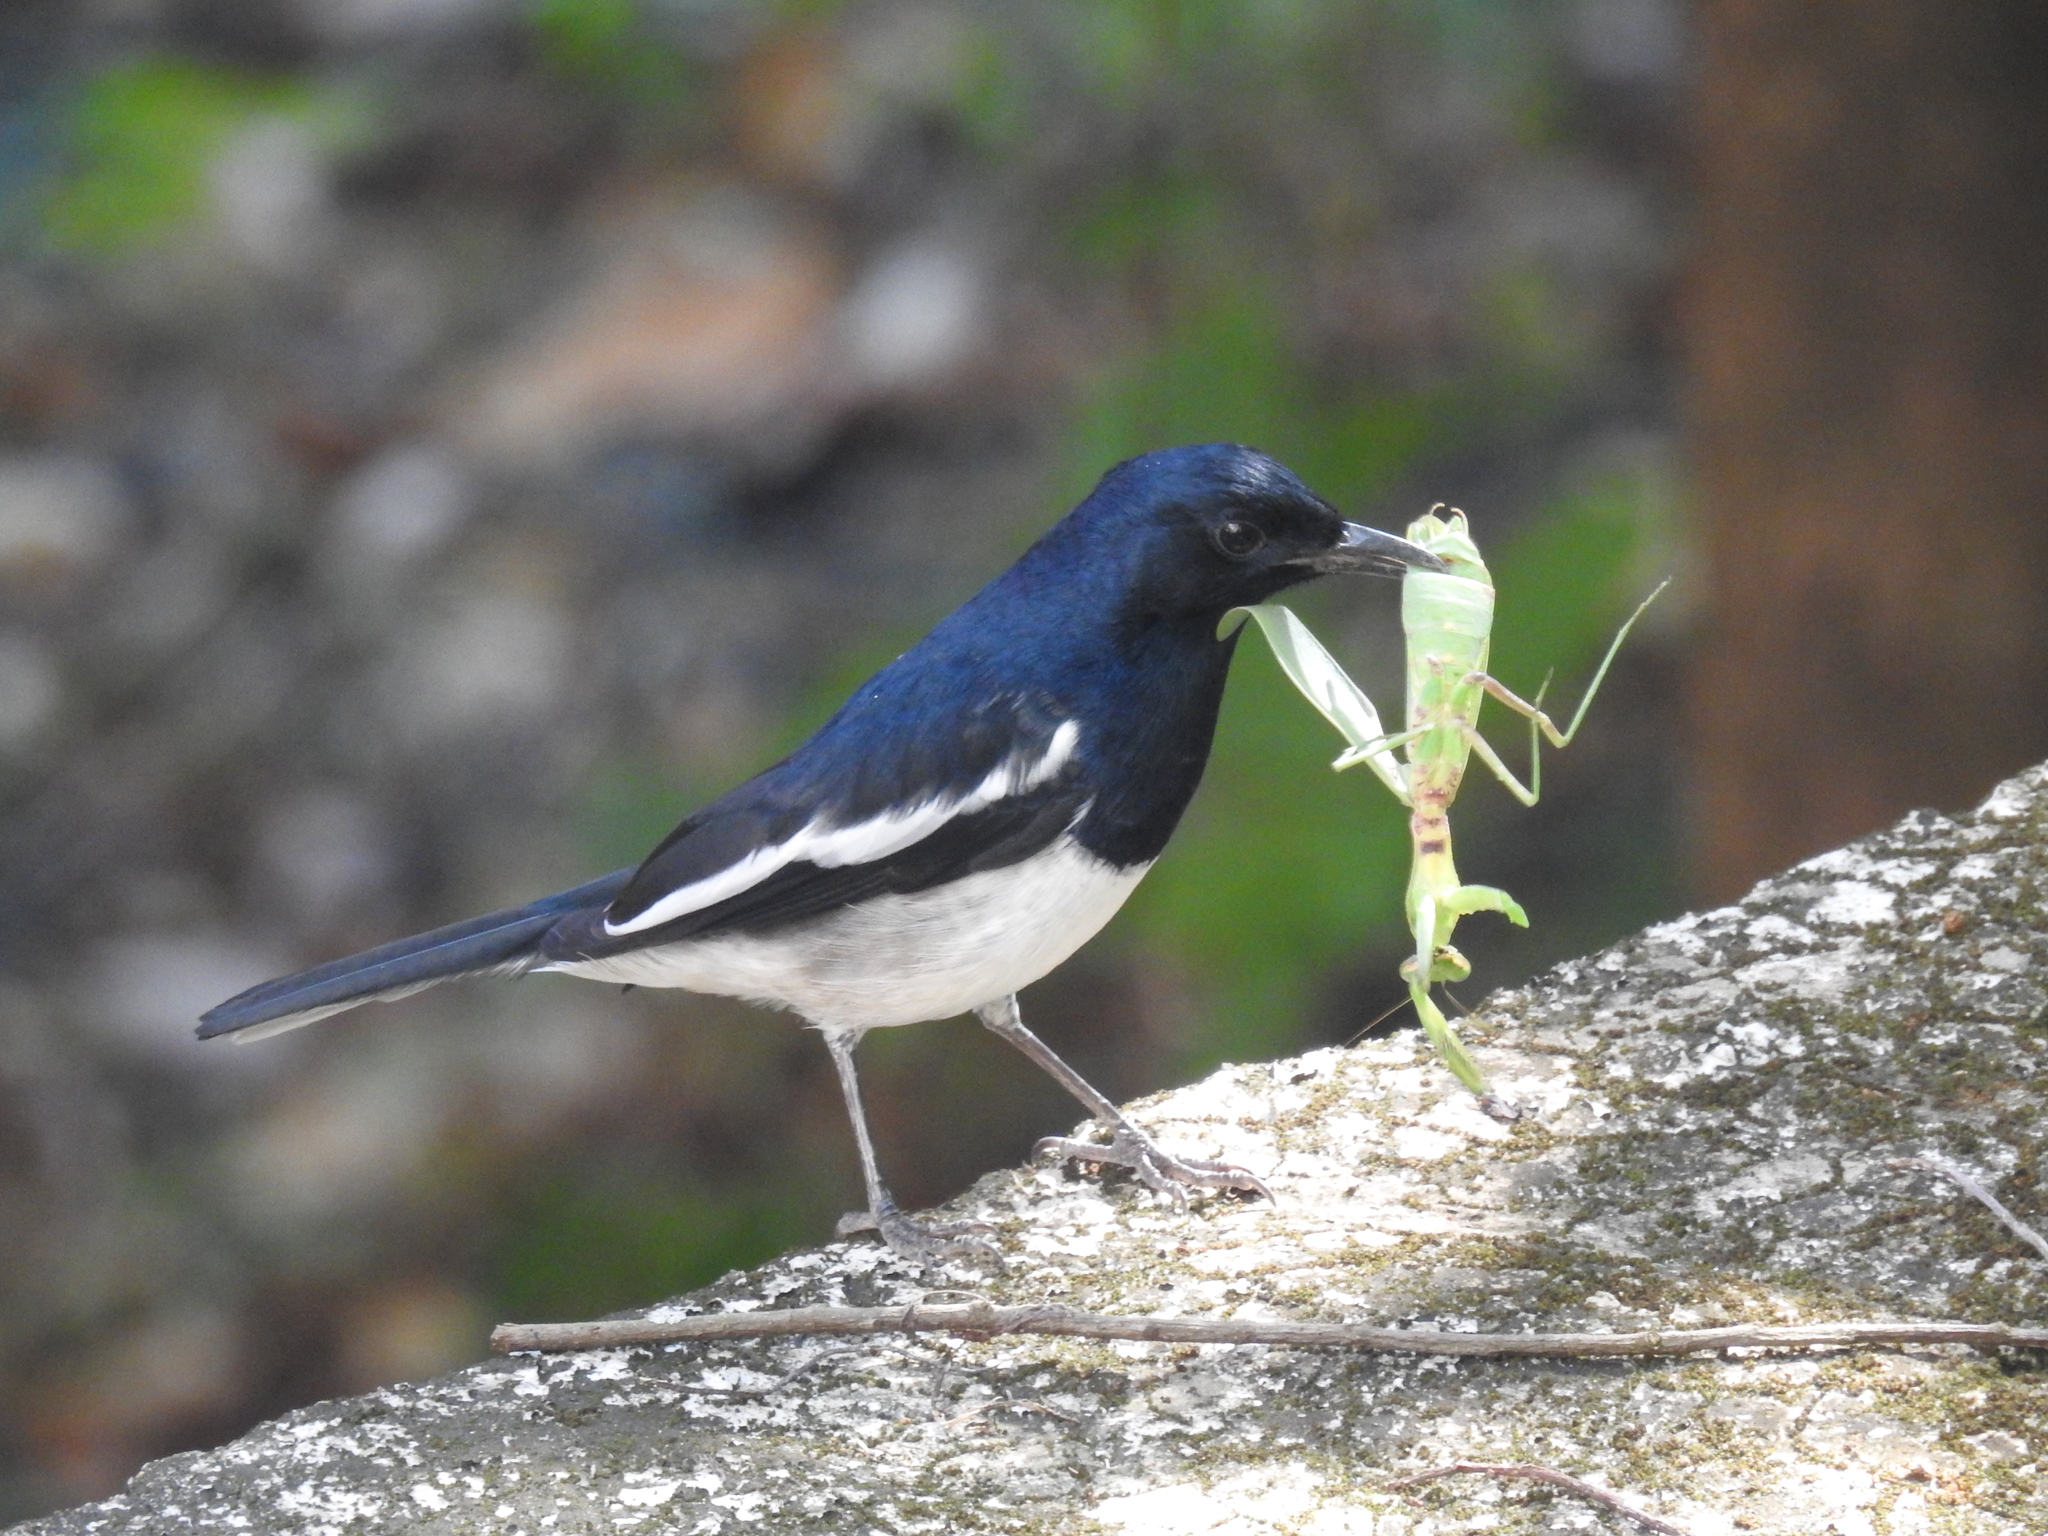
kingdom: Animalia
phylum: Chordata
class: Aves
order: Passeriformes
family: Muscicapidae
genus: Copsychus
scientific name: Copsychus saularis
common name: Oriental magpie-robin
